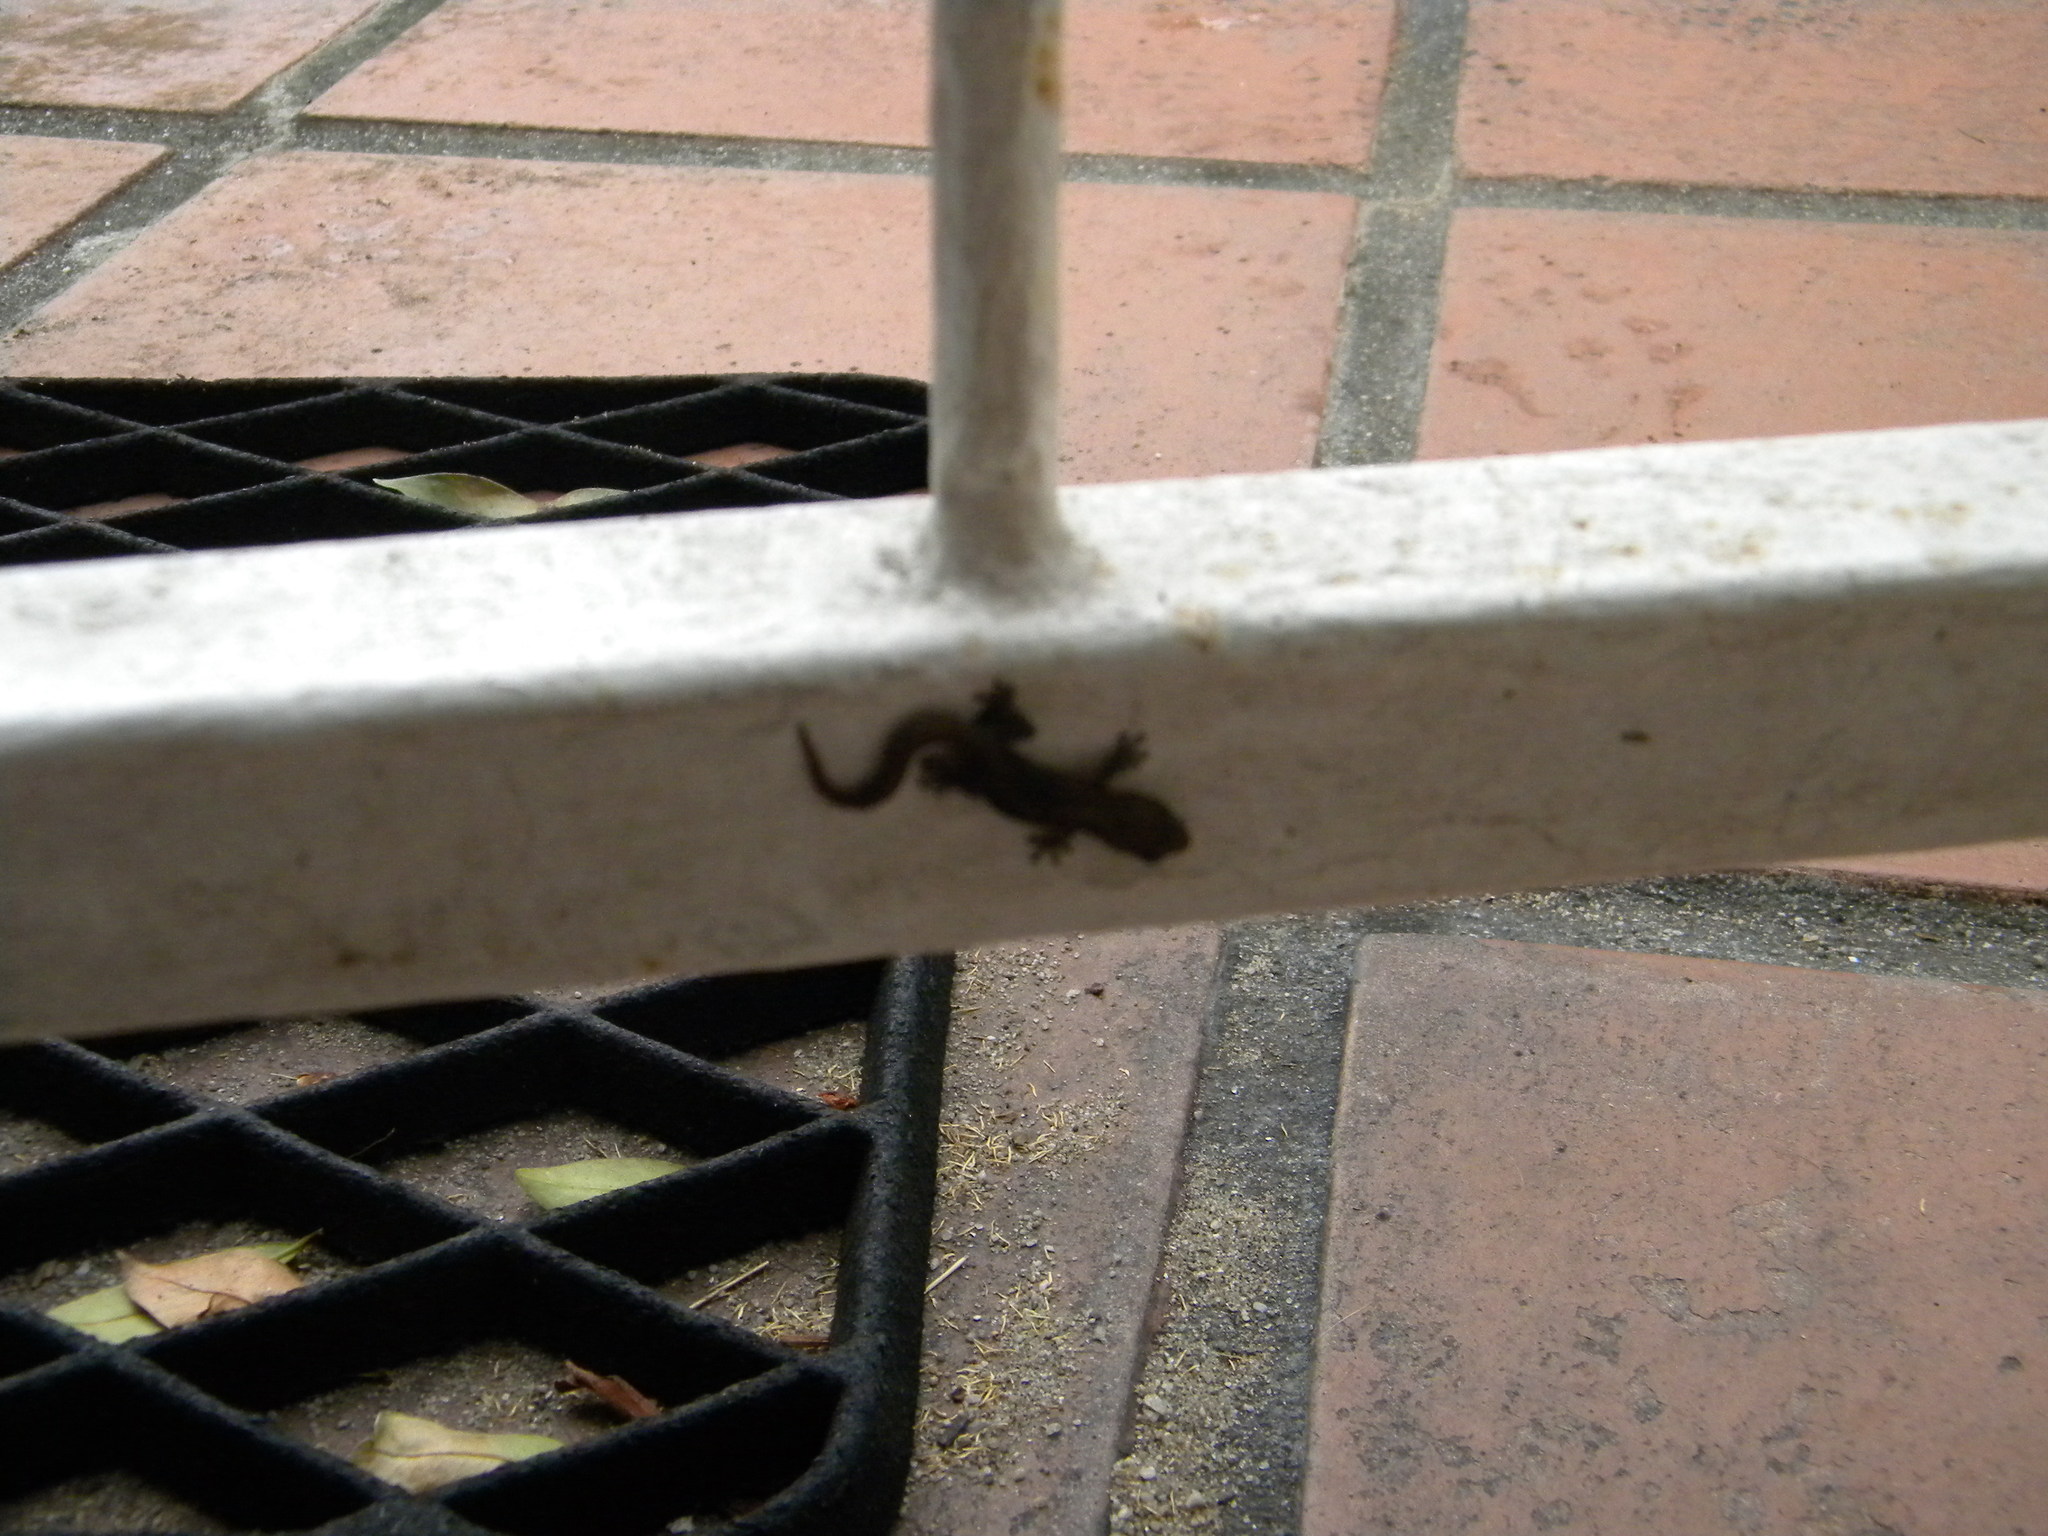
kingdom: Animalia
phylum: Chordata
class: Squamata
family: Gekkonidae
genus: Afrogecko
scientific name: Afrogecko porphyreus
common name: Marbled leaf-toed gecko
